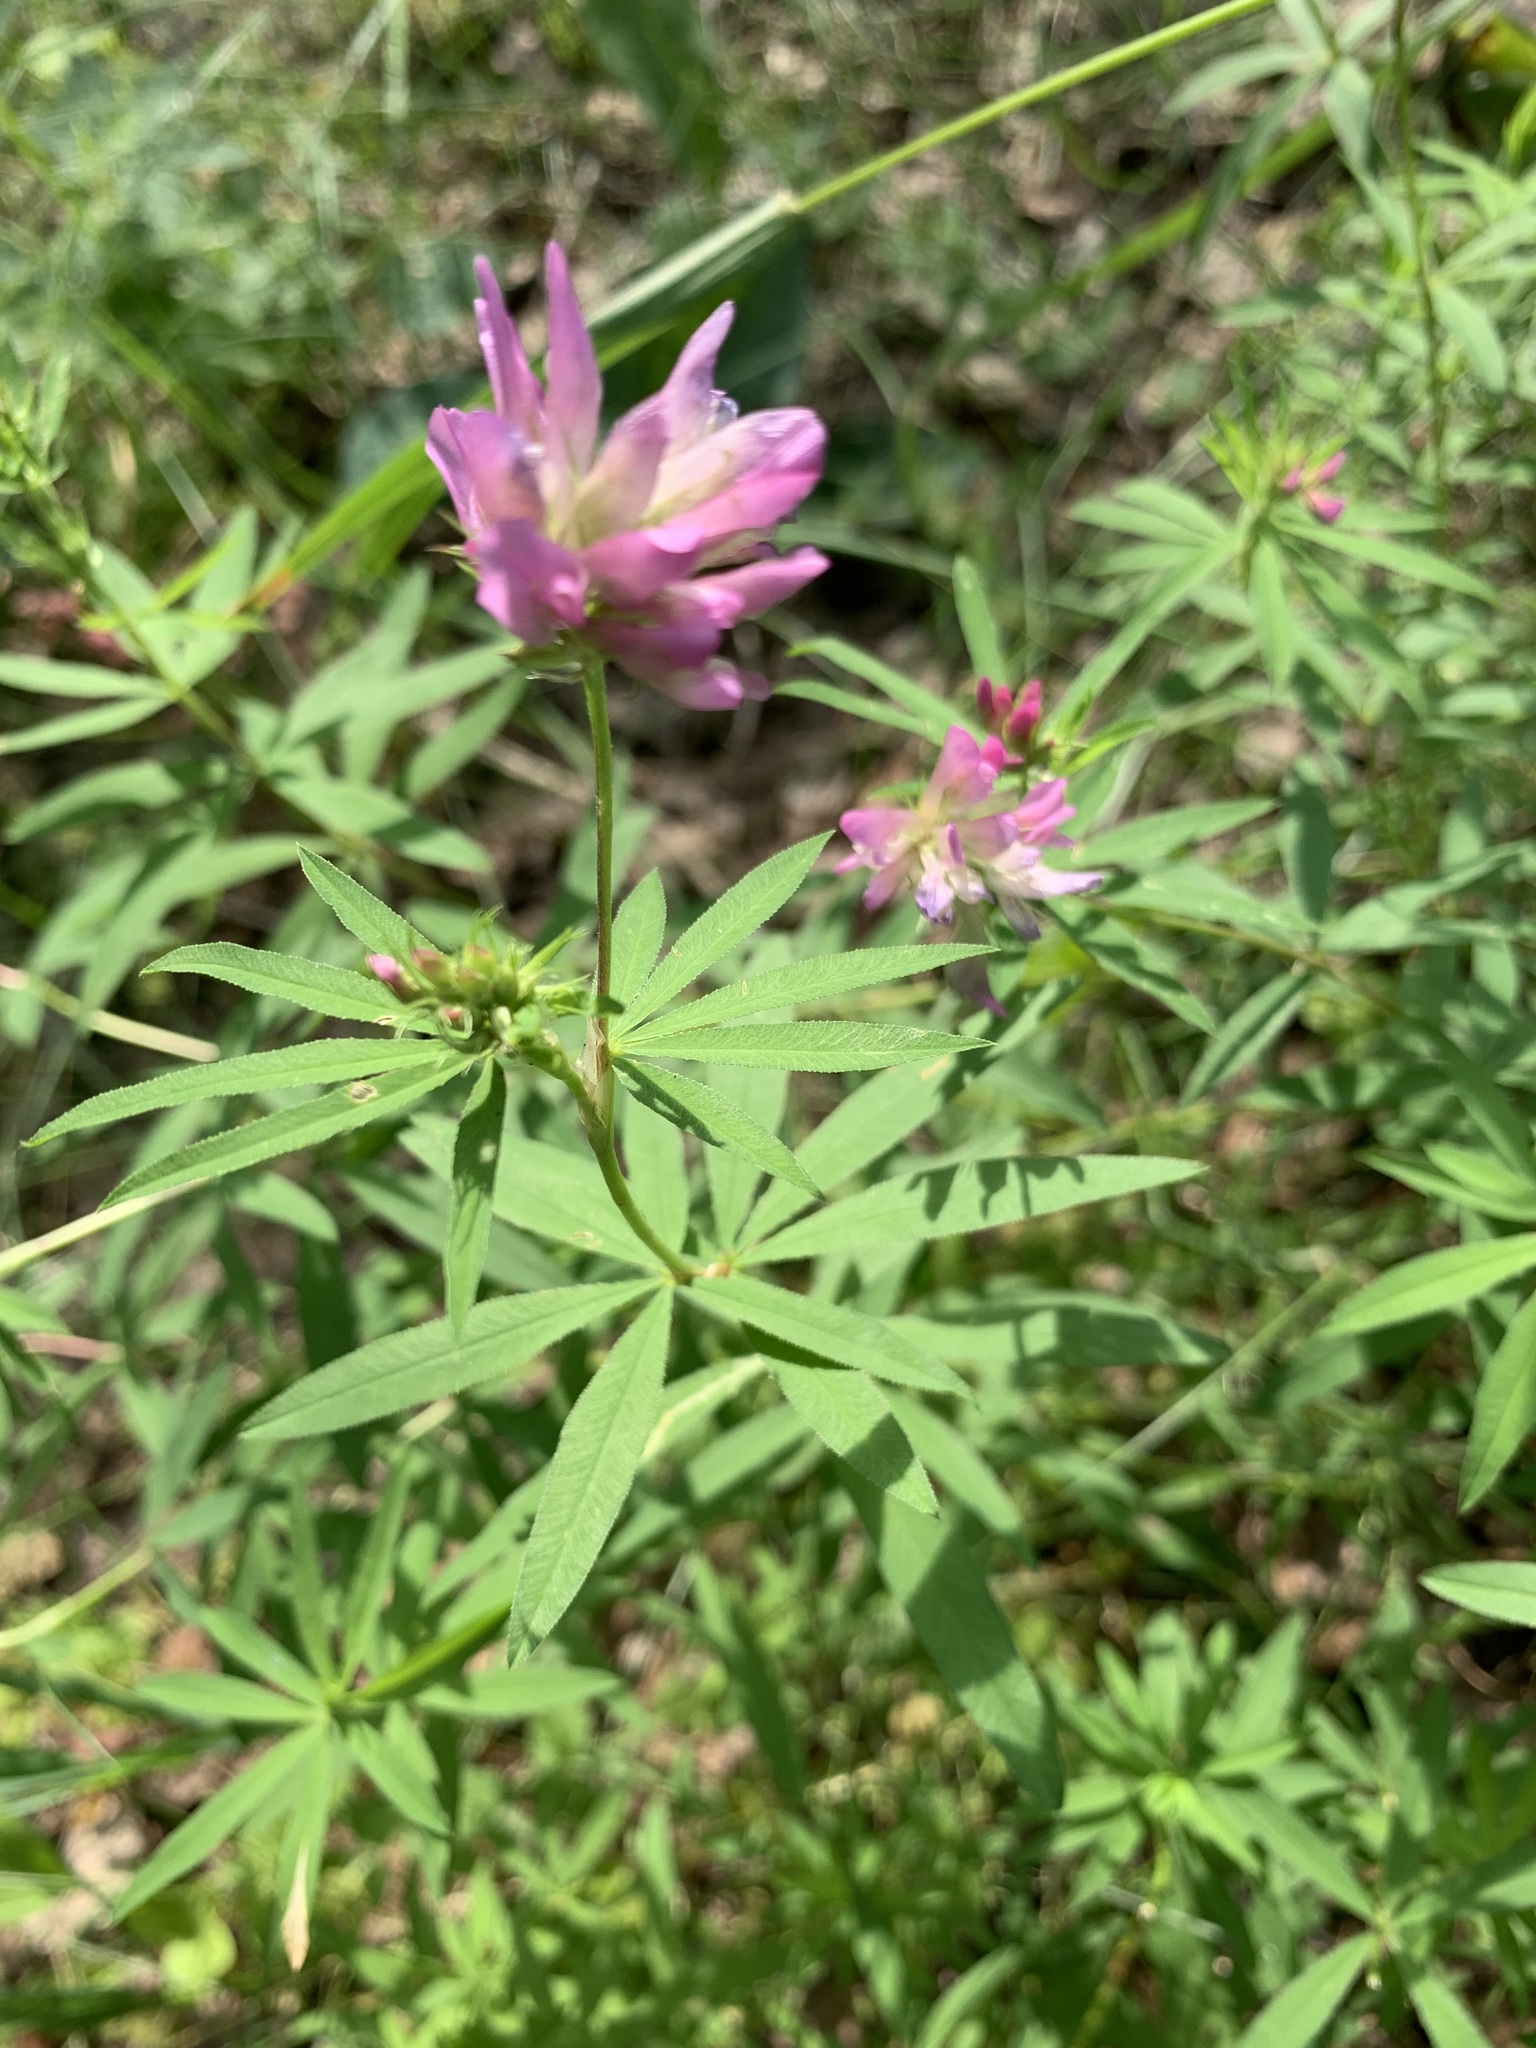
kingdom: Plantae
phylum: Tracheophyta
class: Magnoliopsida
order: Fabales
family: Fabaceae
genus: Trifolium
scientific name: Trifolium lupinaster
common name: Lupine clover
